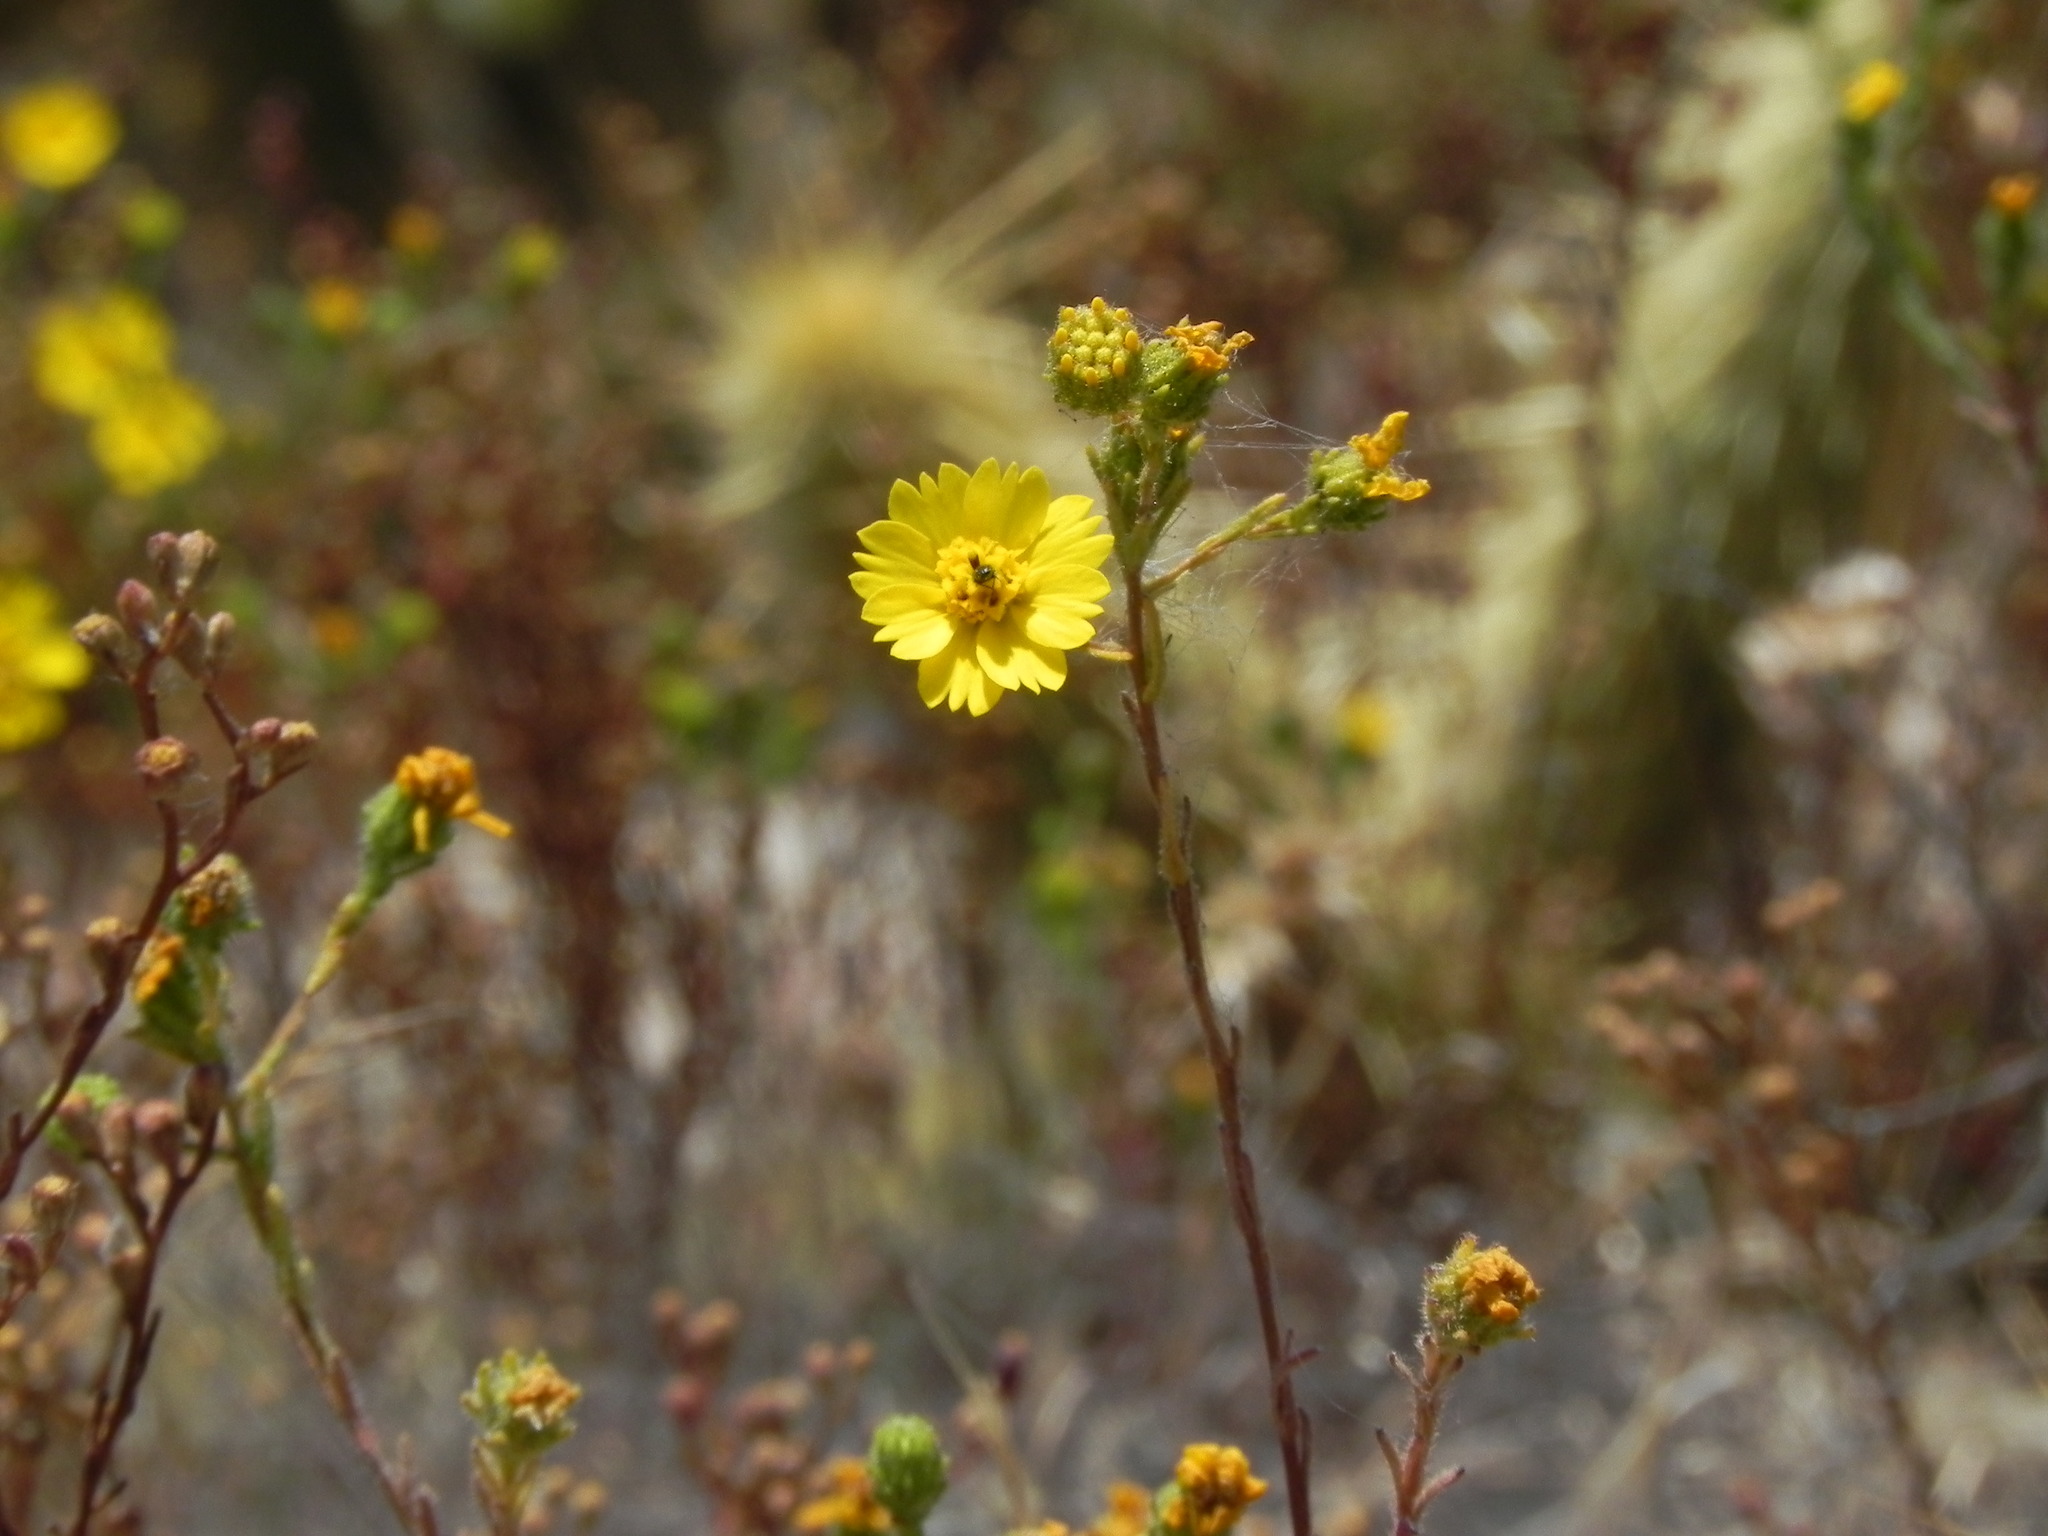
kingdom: Plantae
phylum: Tracheophyta
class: Magnoliopsida
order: Asterales
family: Asteraceae
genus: Deinandra
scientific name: Deinandra conjugens
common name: Otay tarplant
